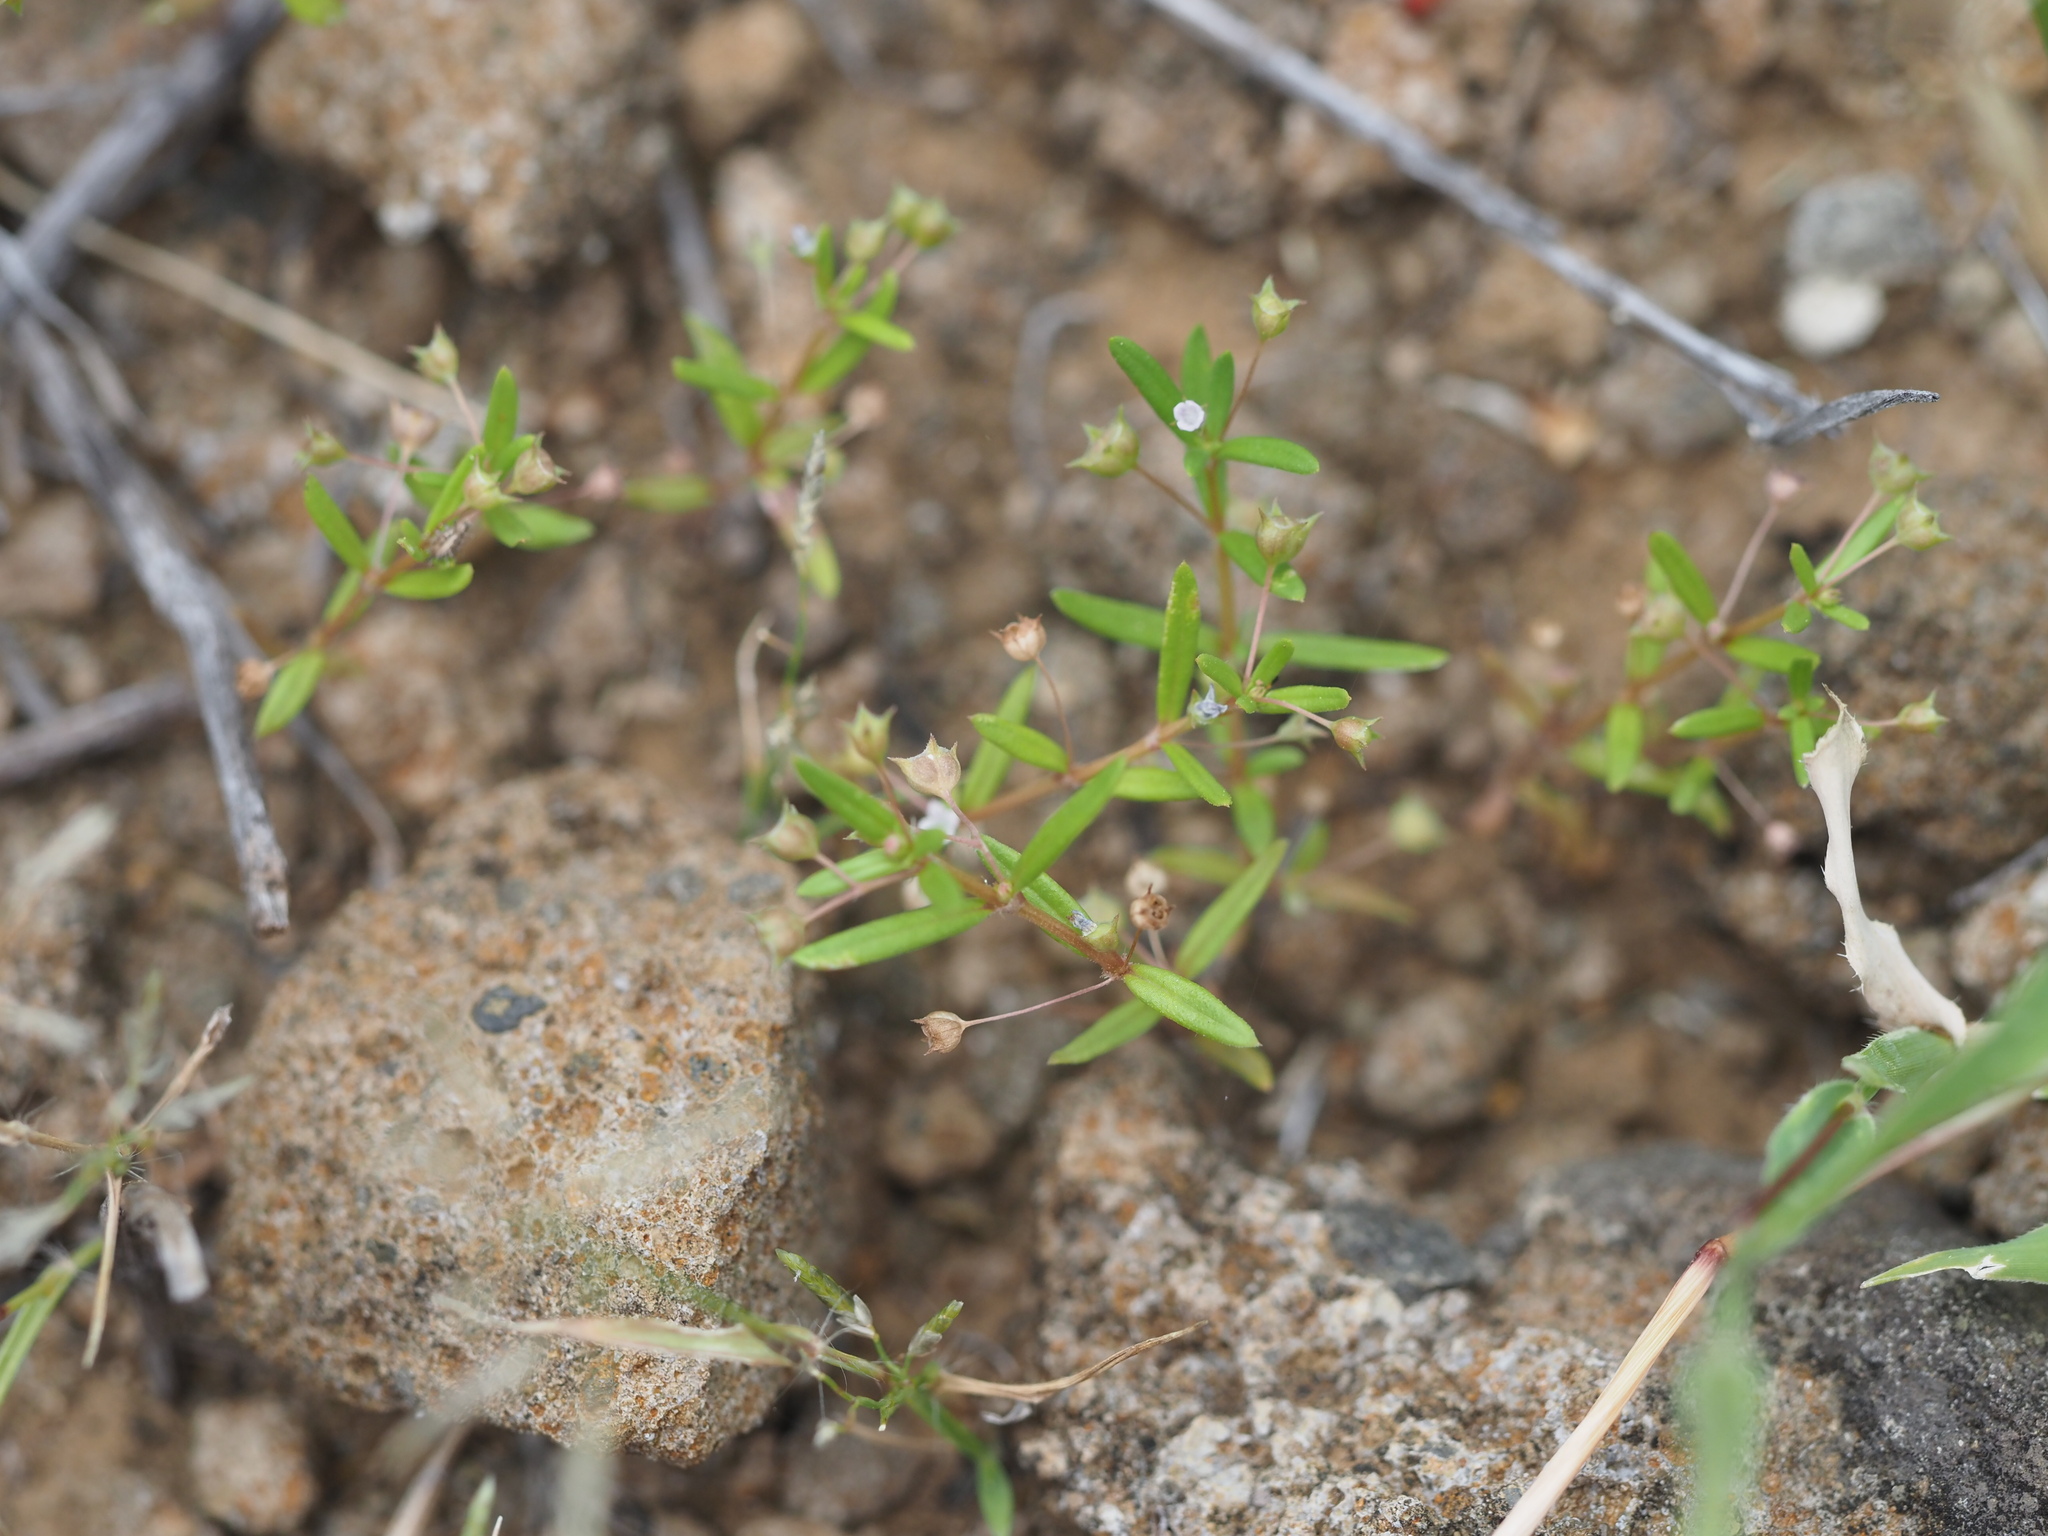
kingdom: Plantae
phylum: Tracheophyta
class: Magnoliopsida
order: Gentianales
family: Rubiaceae
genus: Oldenlandia
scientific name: Oldenlandia corymbosa
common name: Flat-top mille graines
